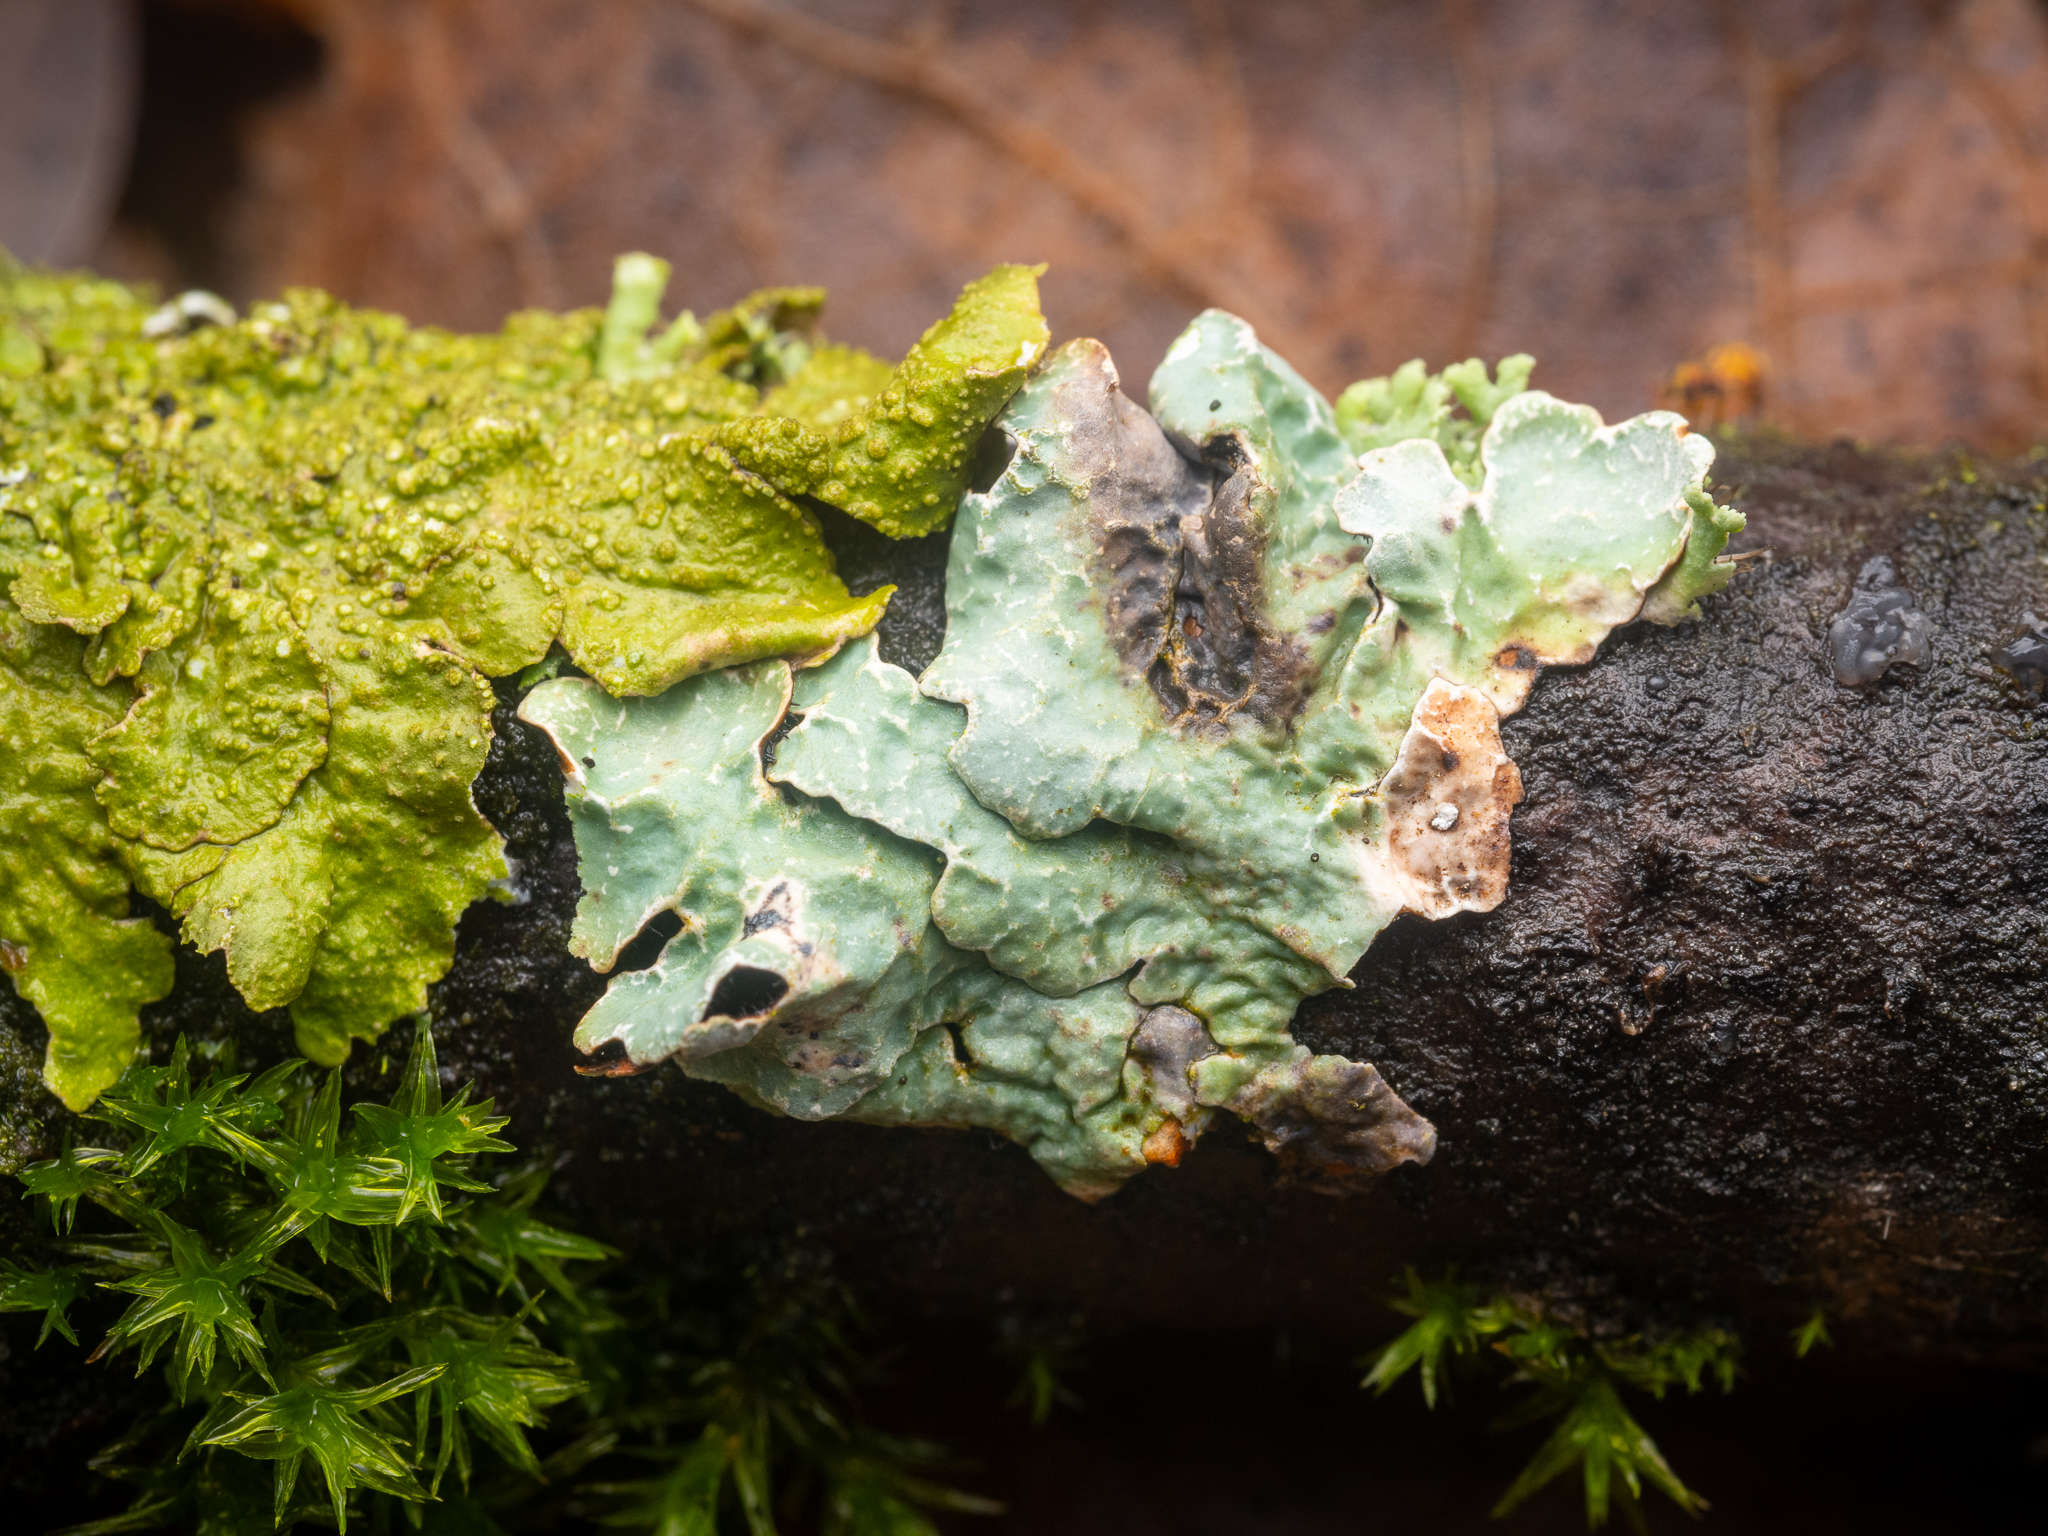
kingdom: Fungi
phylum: Ascomycota
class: Lecanoromycetes
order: Lecanorales
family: Parmeliaceae
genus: Parmelia
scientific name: Parmelia sulcata
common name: Netted shield lichen
